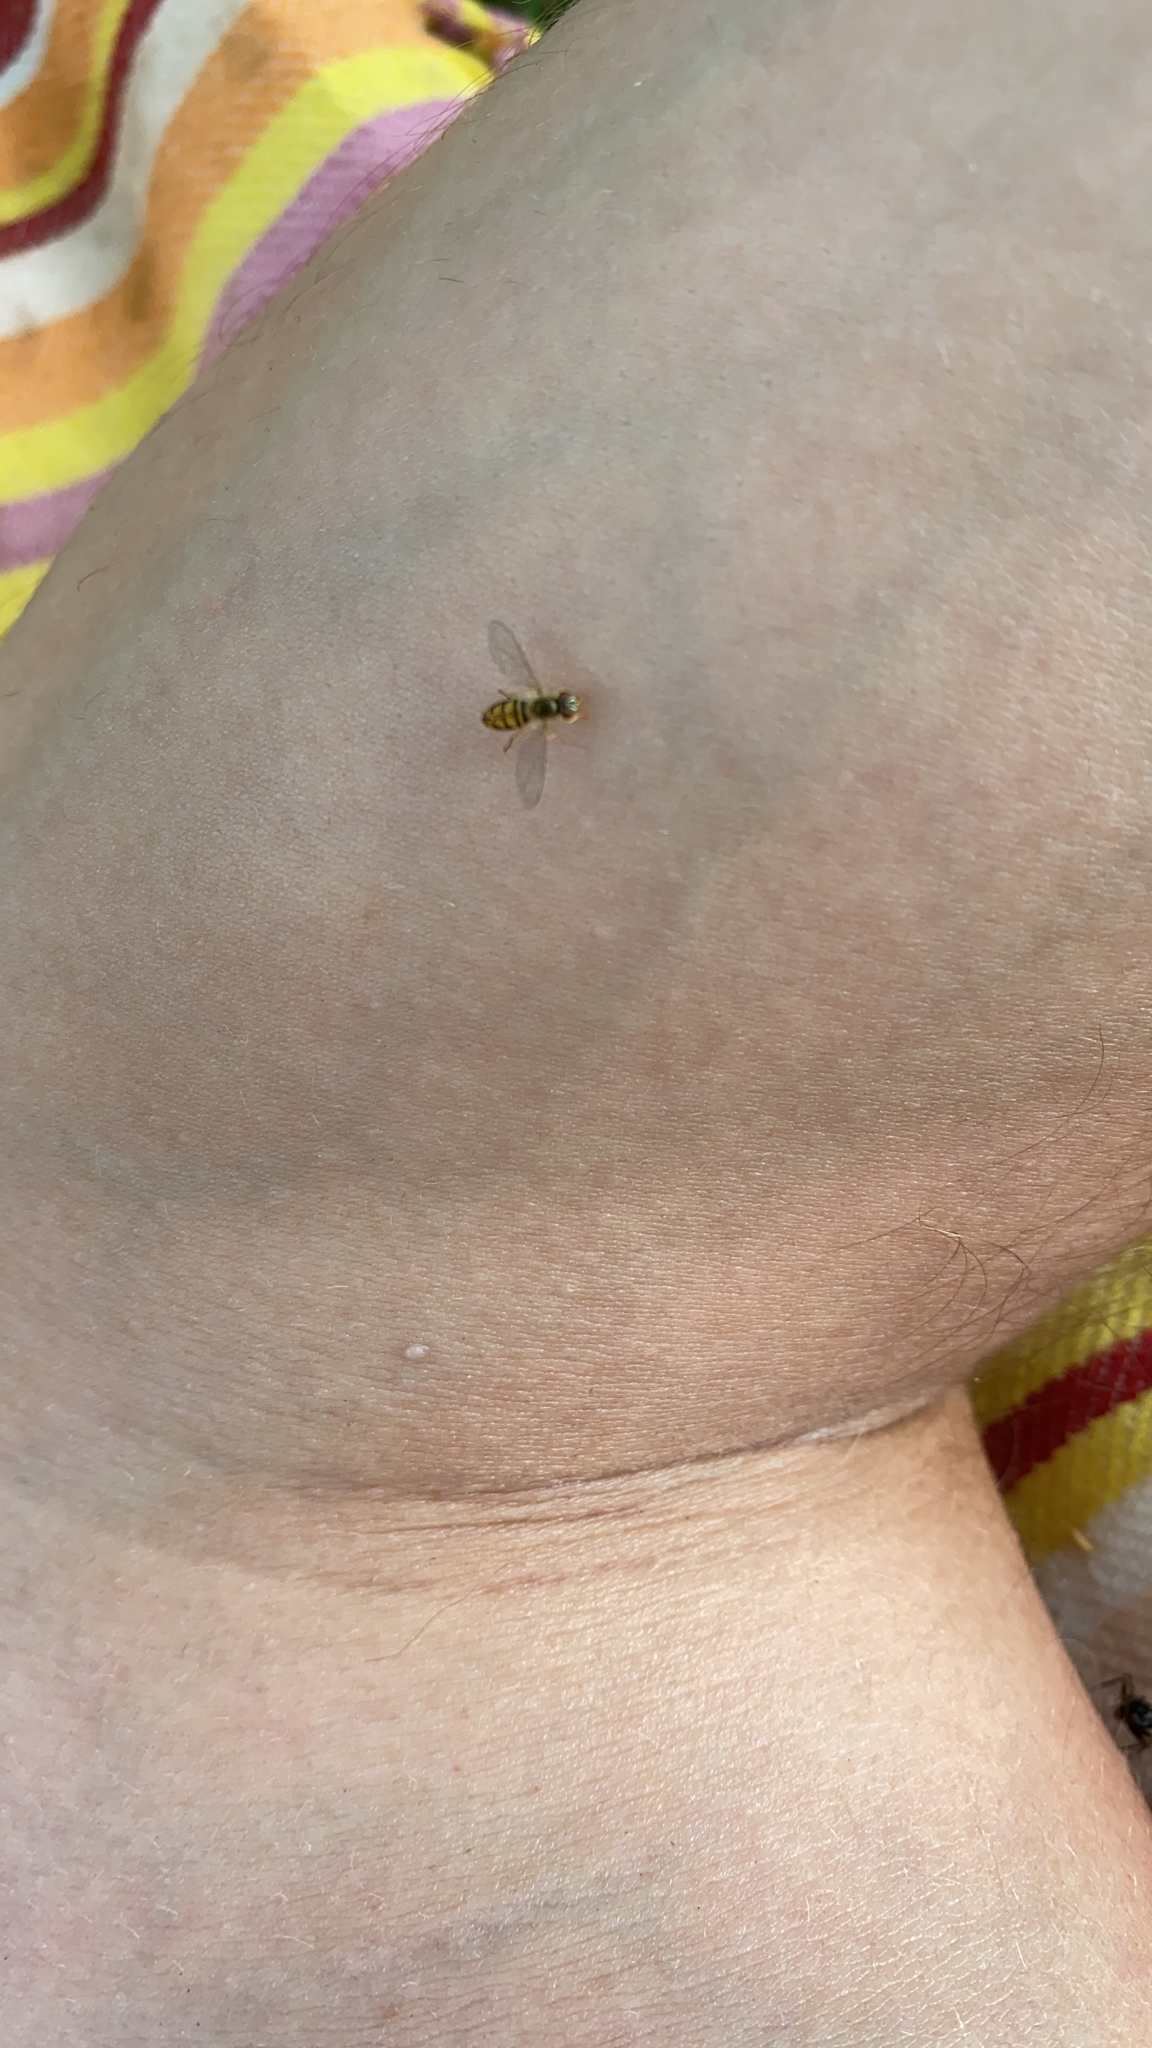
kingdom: Animalia
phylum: Arthropoda
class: Insecta
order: Diptera
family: Syrphidae
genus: Toxomerus
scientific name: Toxomerus marginatus
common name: Syrphid fly
